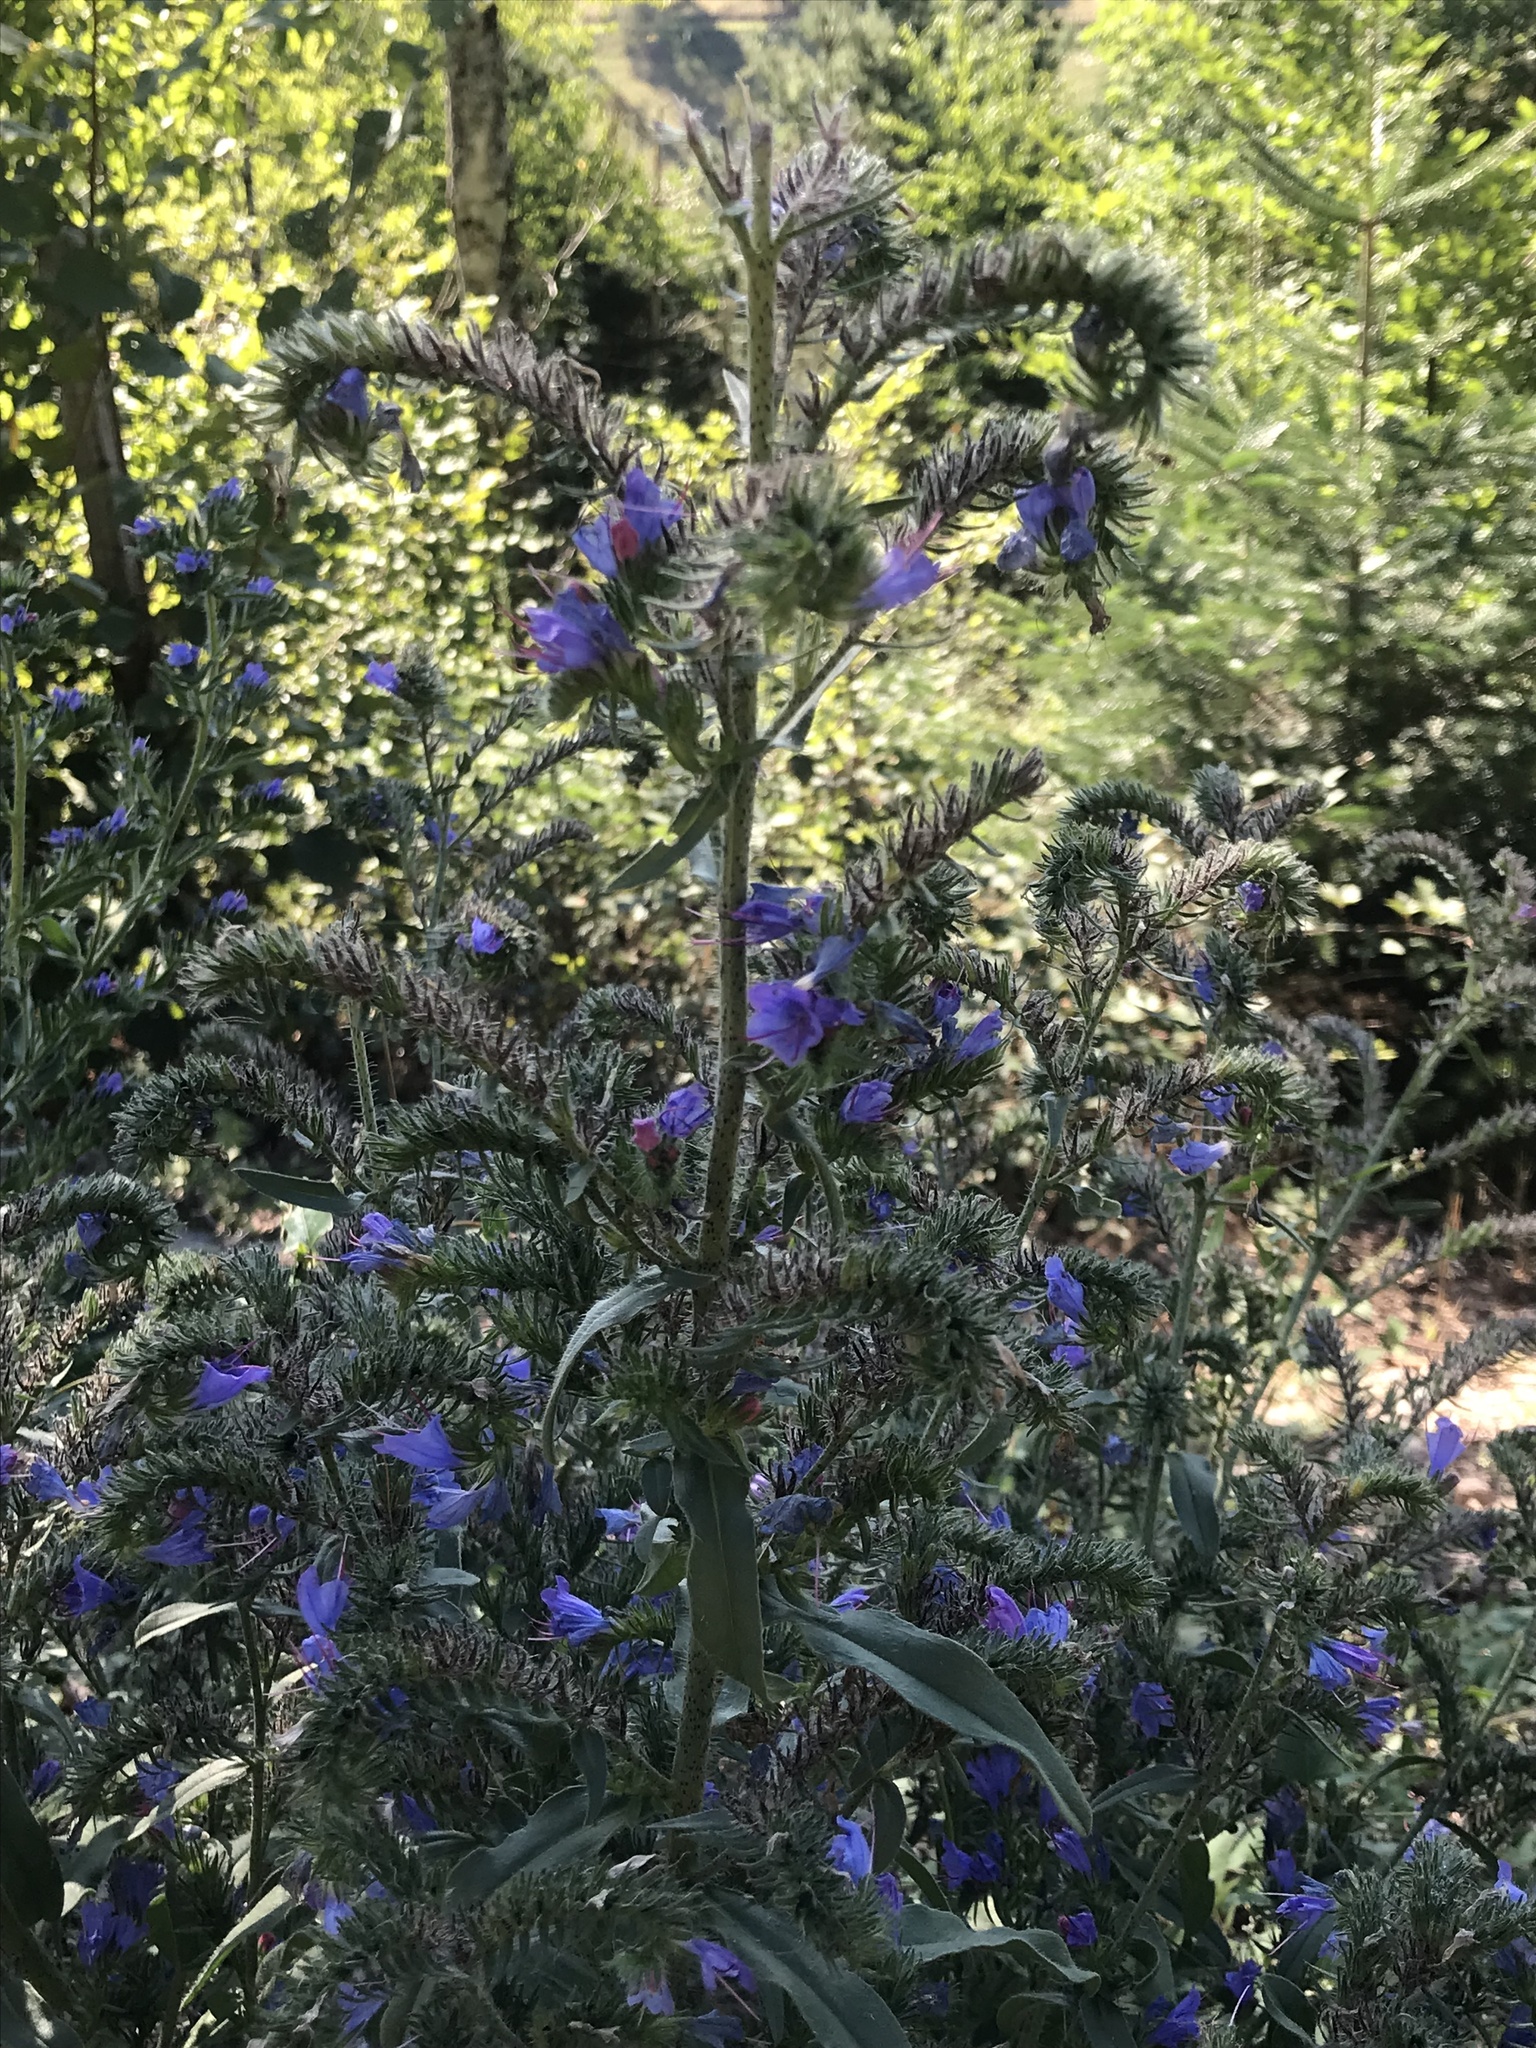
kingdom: Plantae
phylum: Tracheophyta
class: Magnoliopsida
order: Boraginales
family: Boraginaceae
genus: Echium
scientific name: Echium vulgare
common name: Common viper's bugloss
